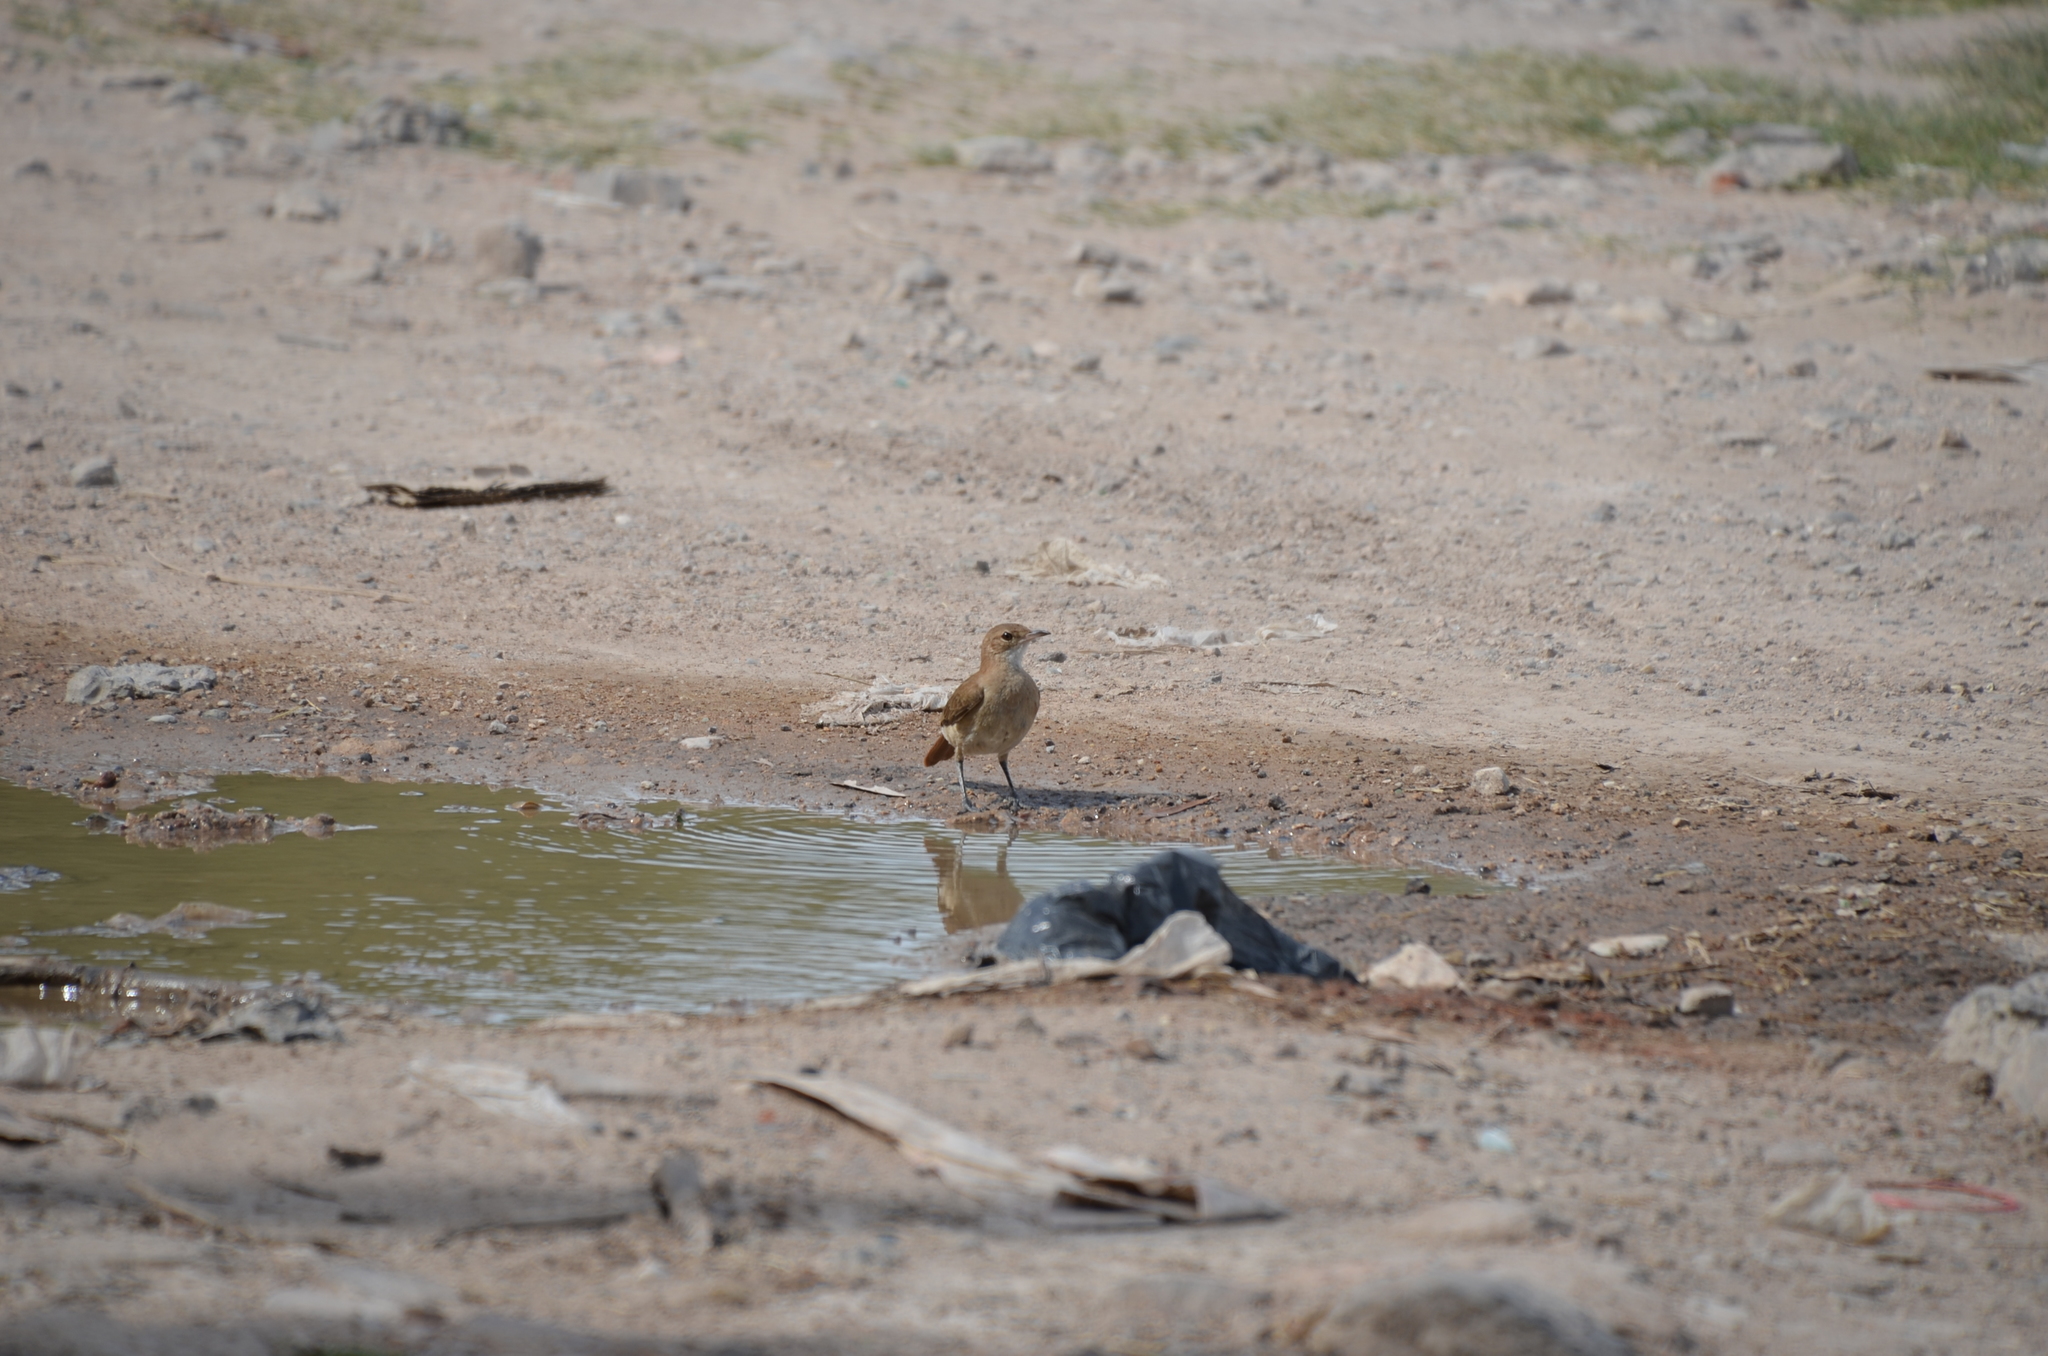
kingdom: Animalia
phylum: Chordata
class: Aves
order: Passeriformes
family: Furnariidae
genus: Furnarius
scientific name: Furnarius rufus
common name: Rufous hornero
